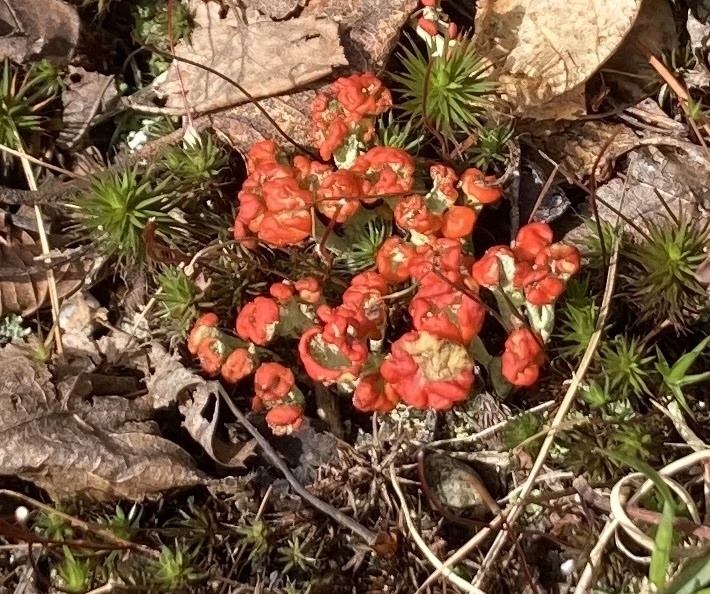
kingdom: Fungi
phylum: Ascomycota
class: Lecanoromycetes
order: Lecanorales
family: Cladoniaceae
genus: Cladonia
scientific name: Cladonia cristatella
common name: British soldier lichen
